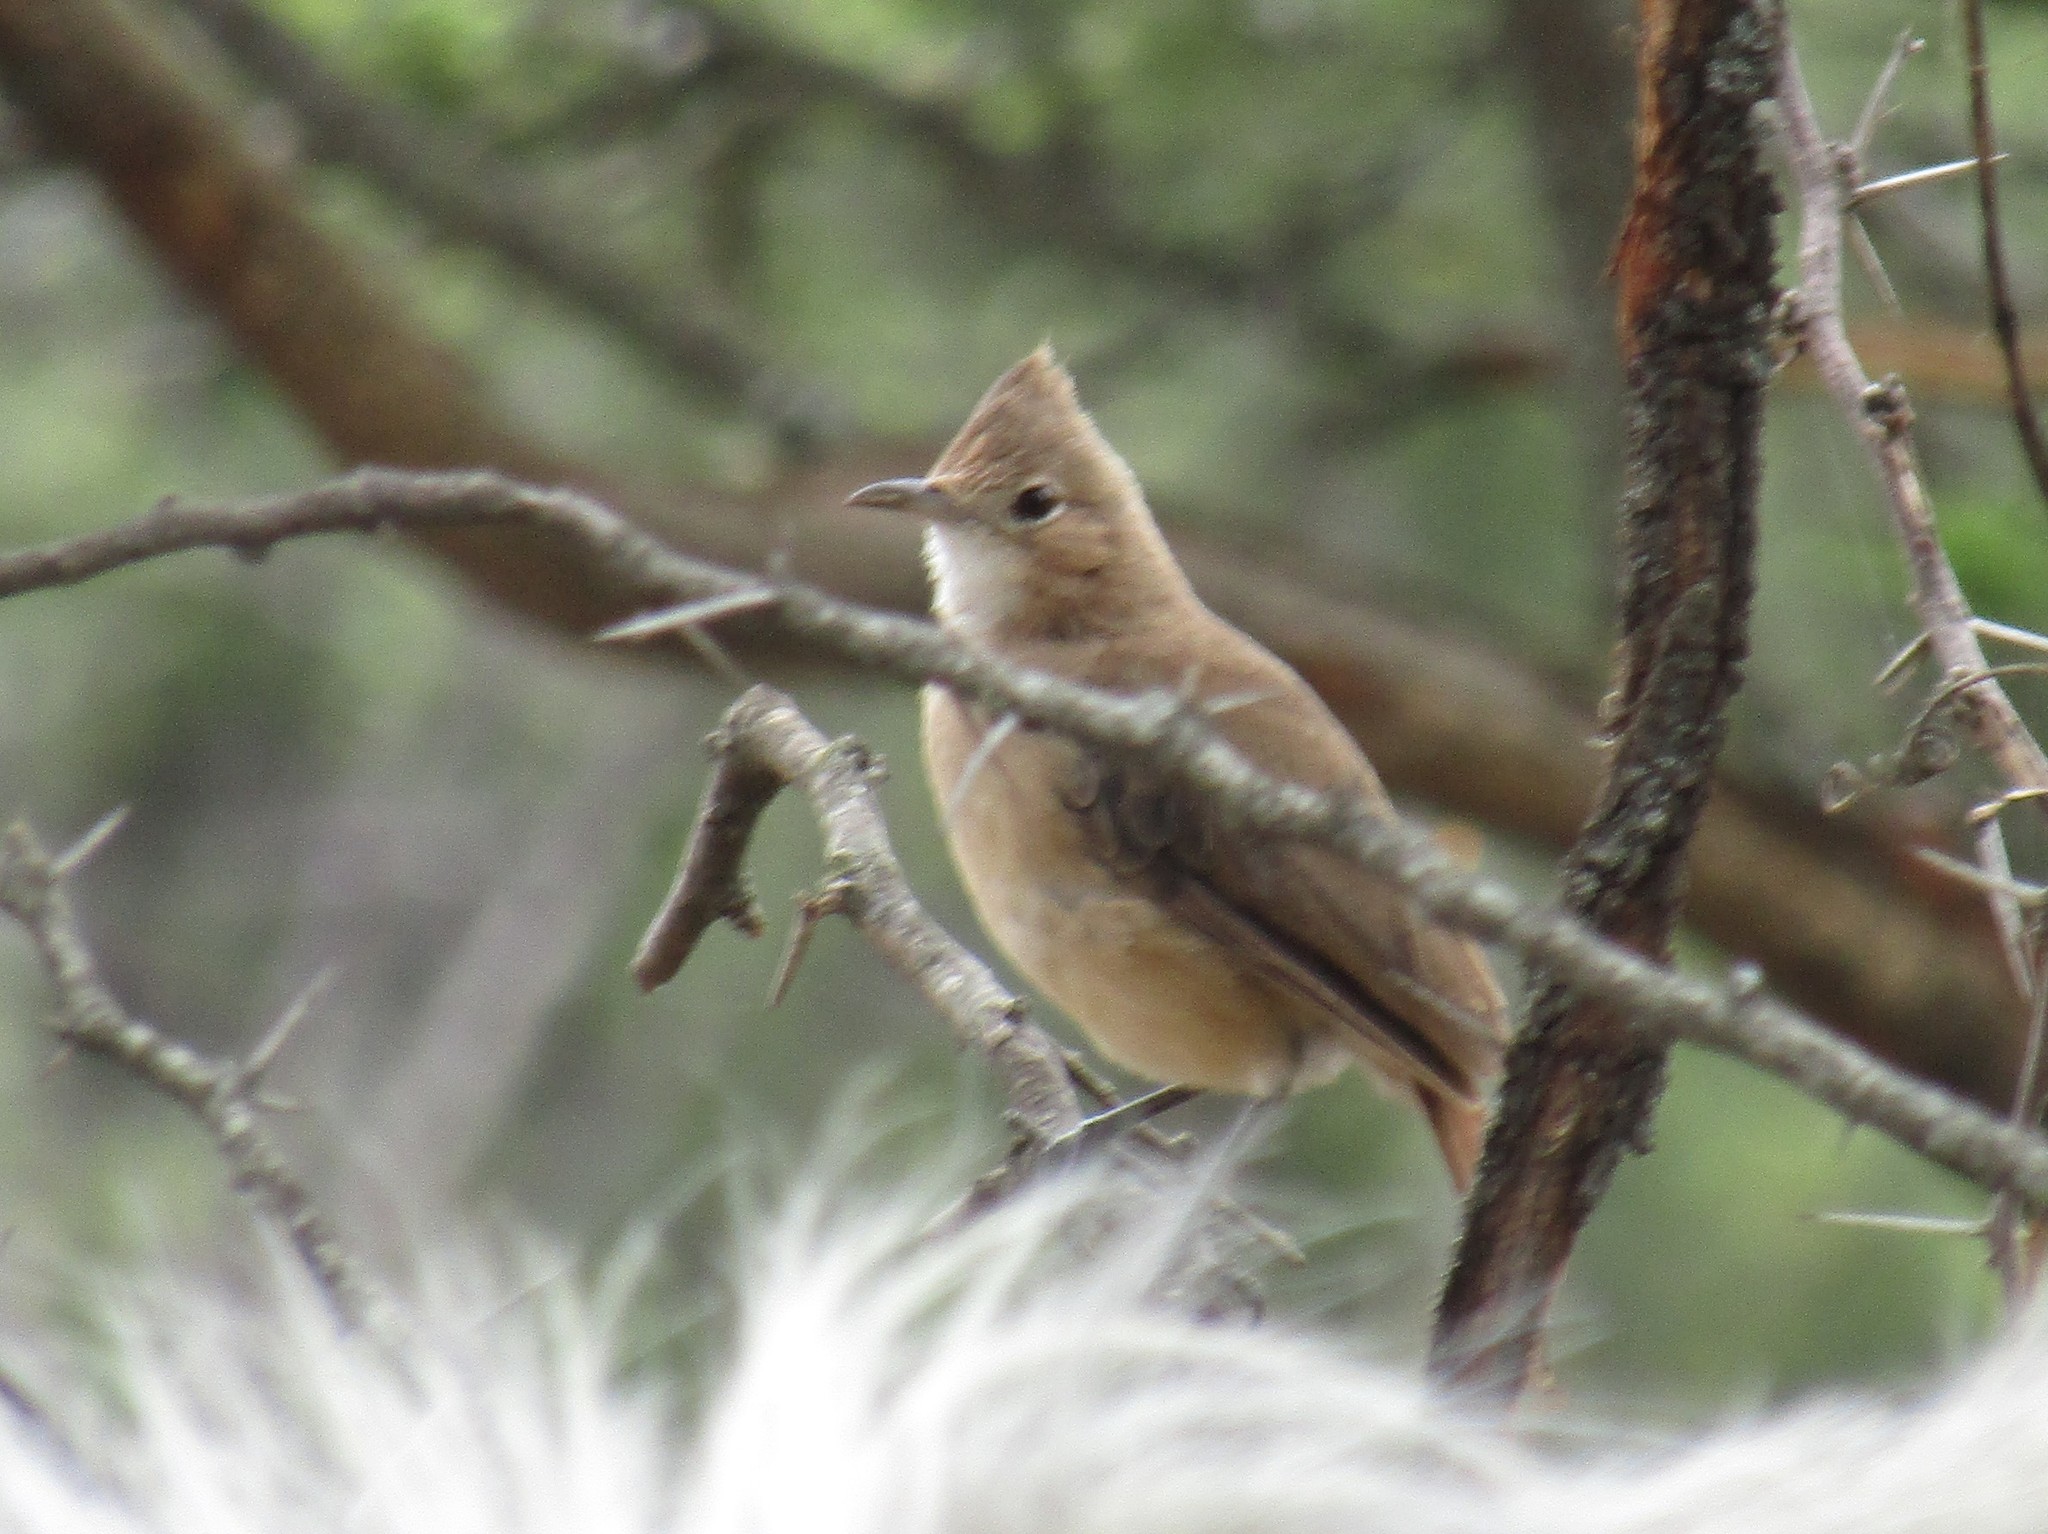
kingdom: Animalia
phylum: Chordata
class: Aves
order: Passeriformes
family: Furnariidae
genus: Furnarius
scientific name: Furnarius cristatus
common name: Crested hornero
